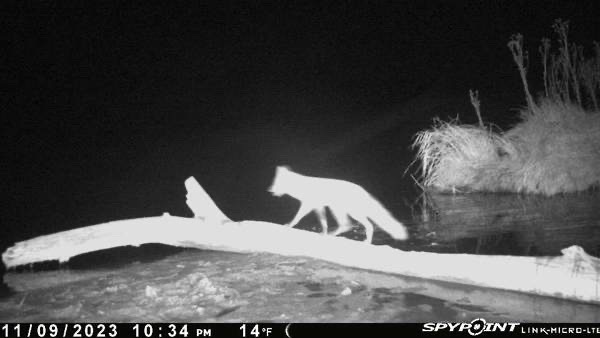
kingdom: Animalia
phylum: Chordata
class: Mammalia
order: Carnivora
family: Canidae
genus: Vulpes
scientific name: Vulpes vulpes
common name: Red fox
